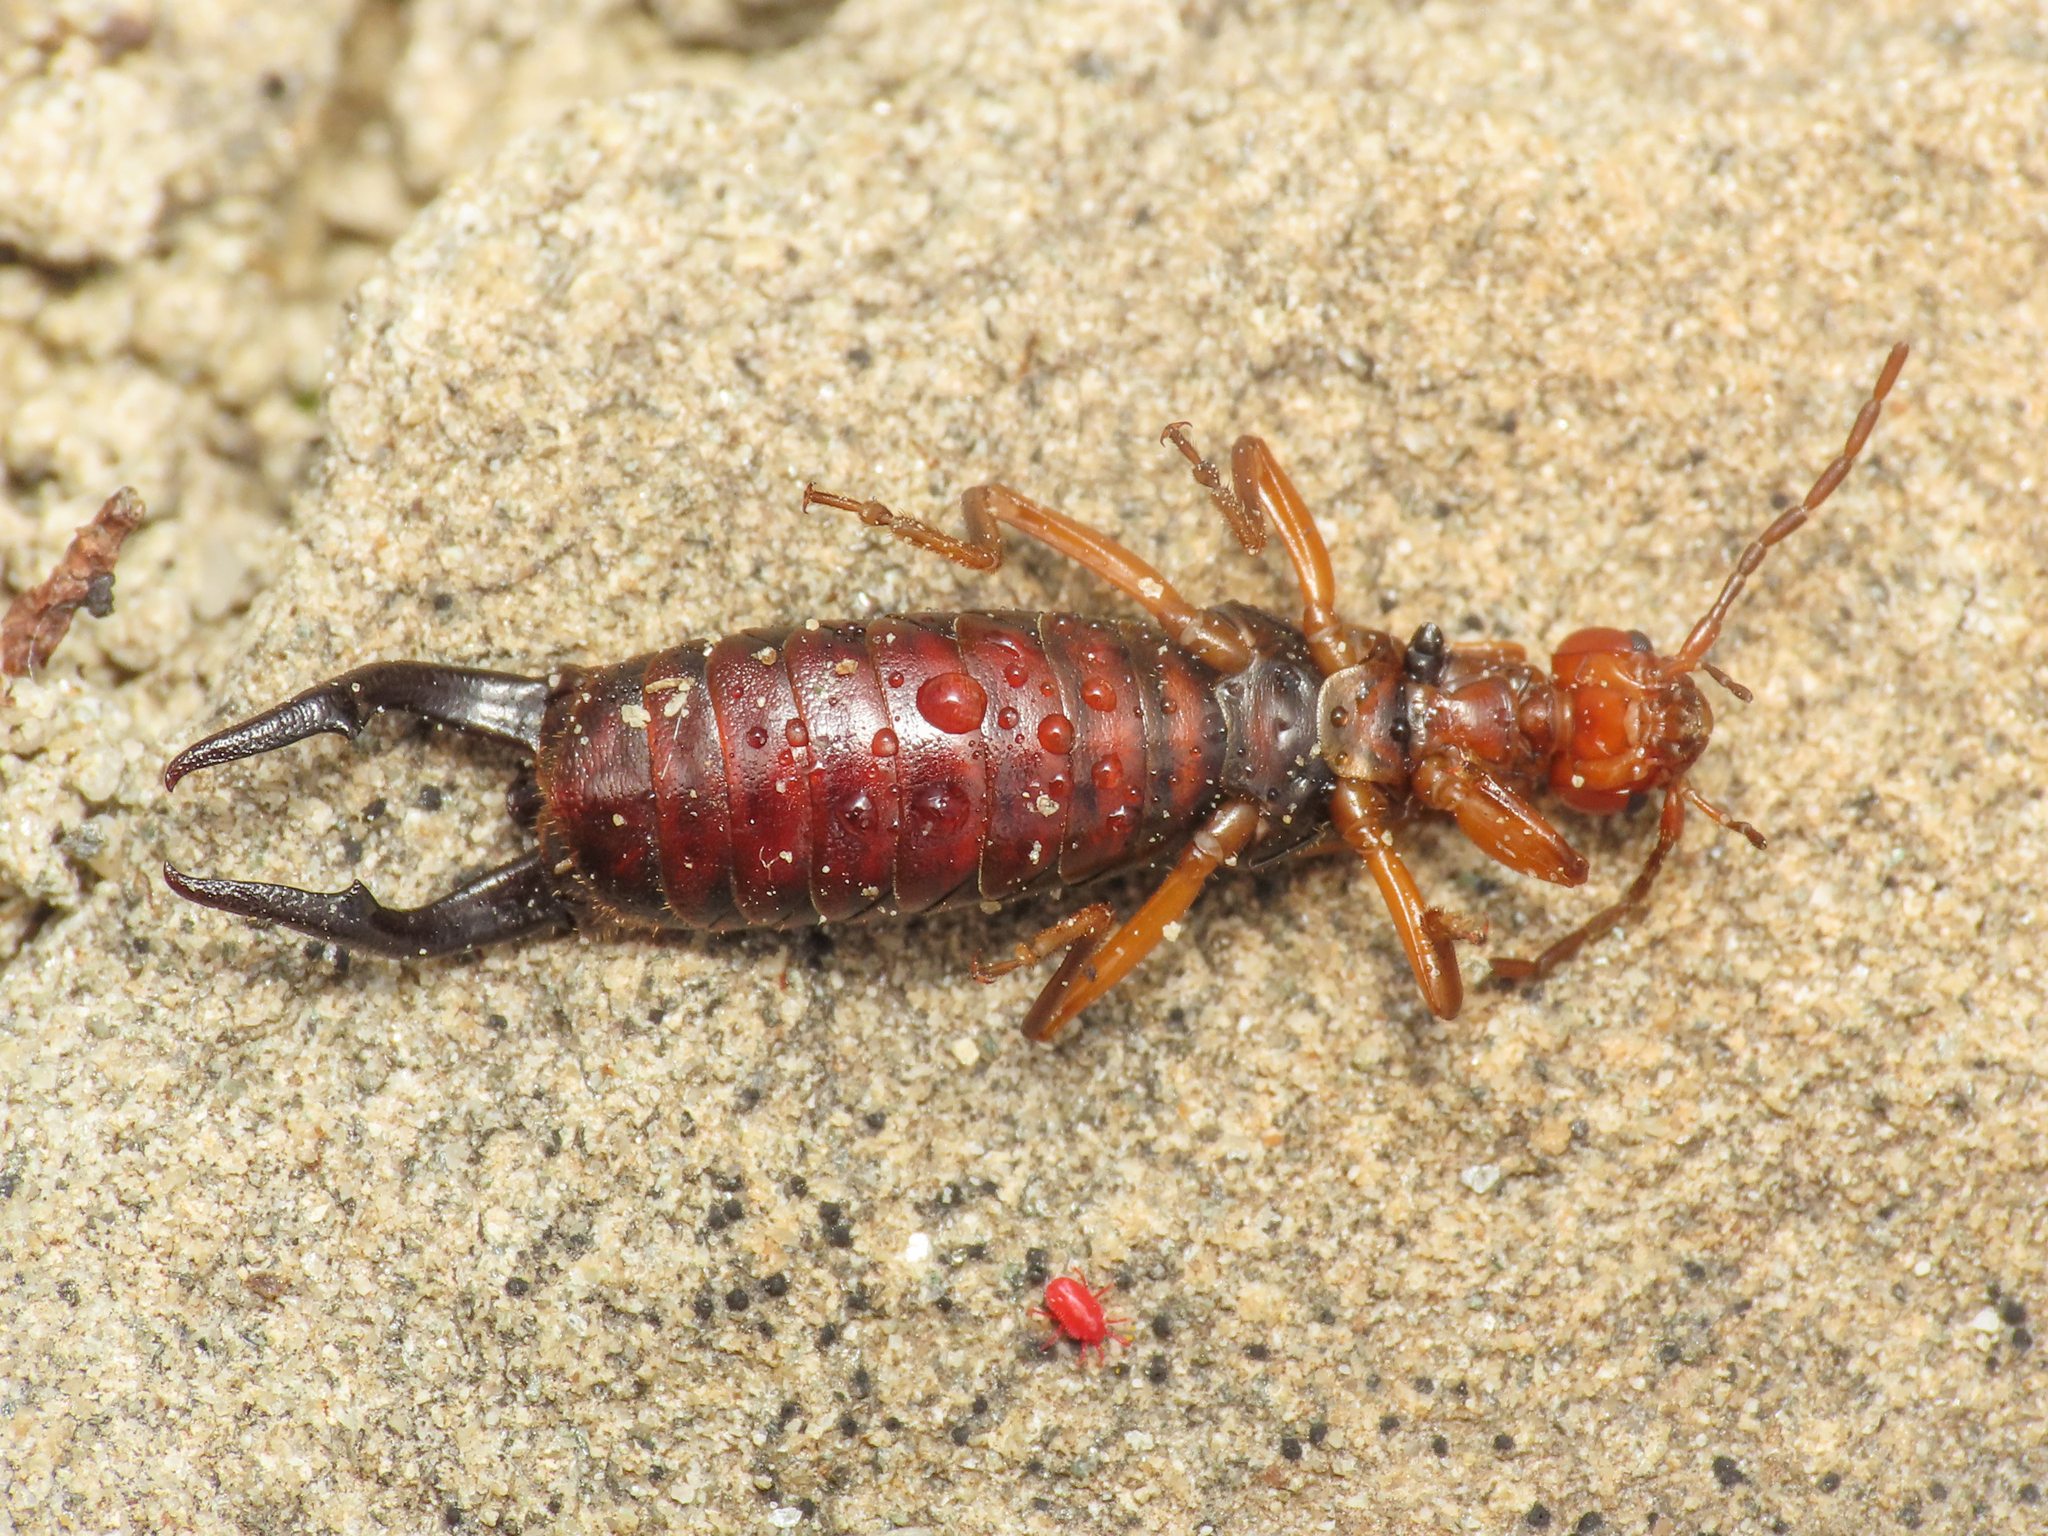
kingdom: Animalia
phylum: Arthropoda
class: Insecta
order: Dermaptera
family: Forficulidae
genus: Pseudochelidura
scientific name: Pseudochelidura
